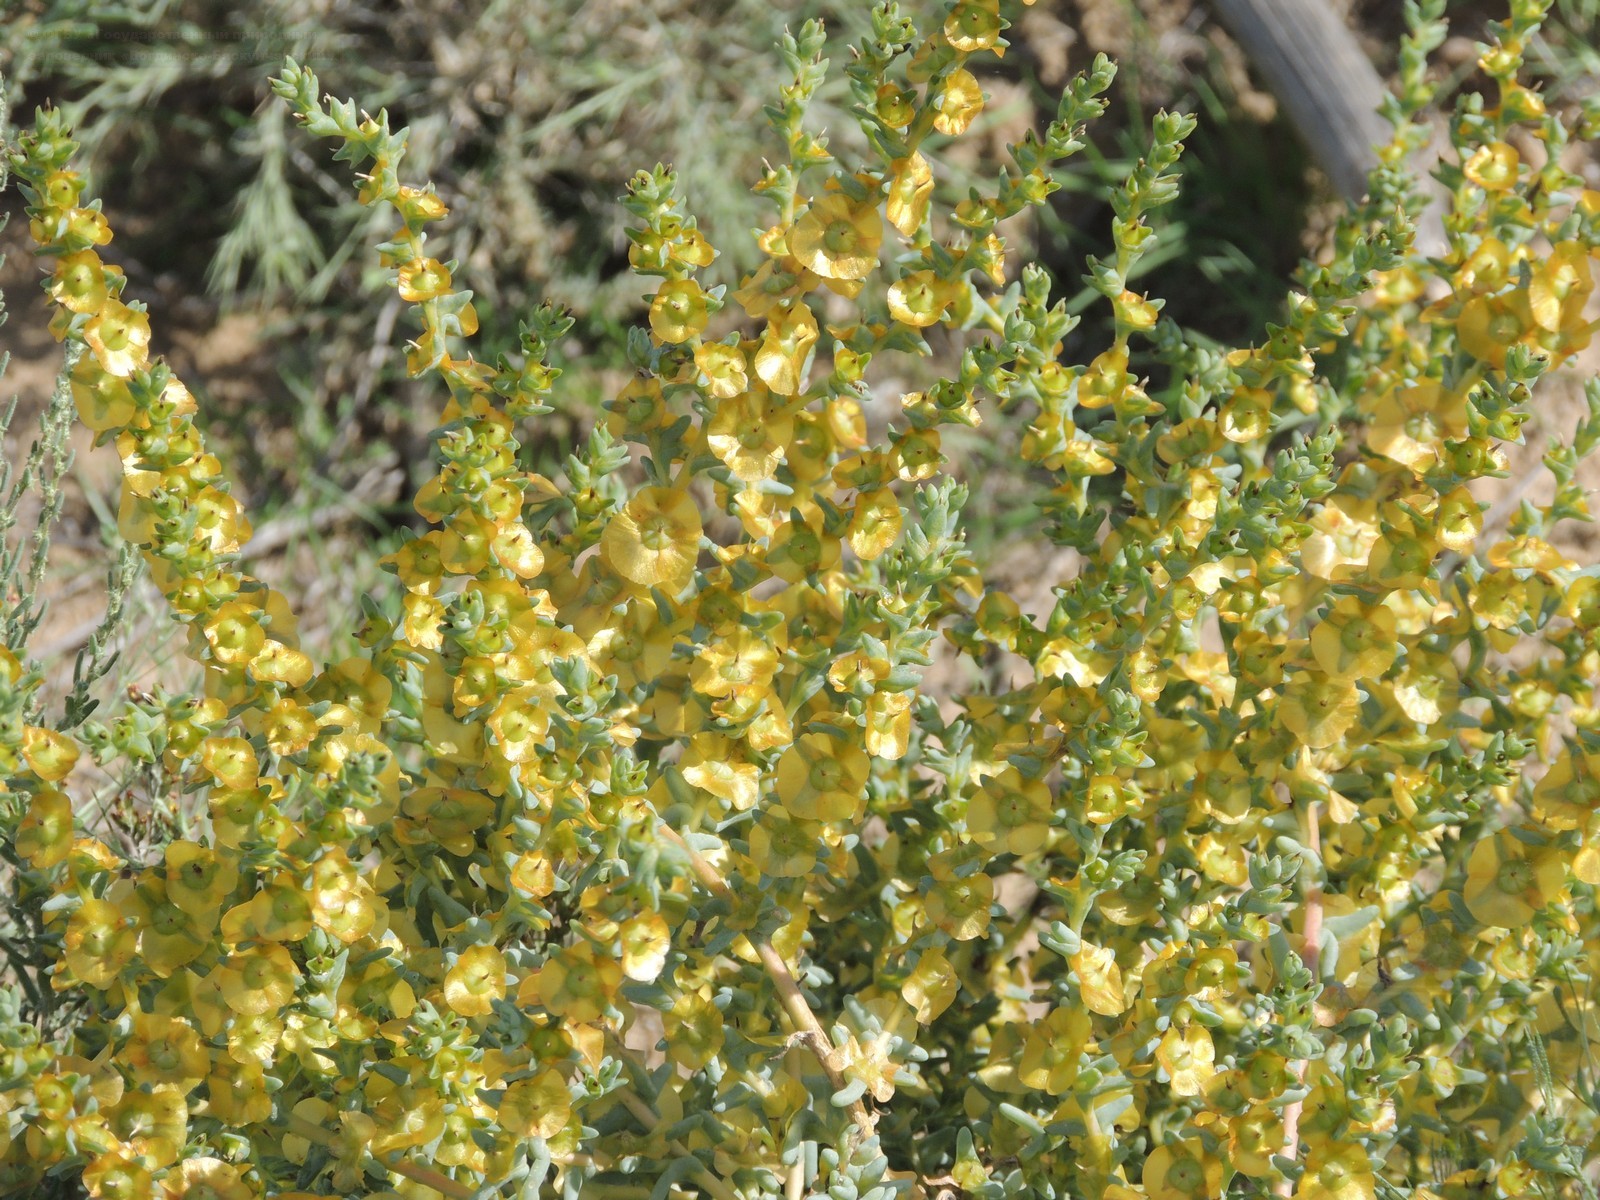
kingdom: Plantae
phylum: Tracheophyta
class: Magnoliopsida
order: Caryophyllales
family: Amaranthaceae
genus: Climacoptera
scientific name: Climacoptera crassa
